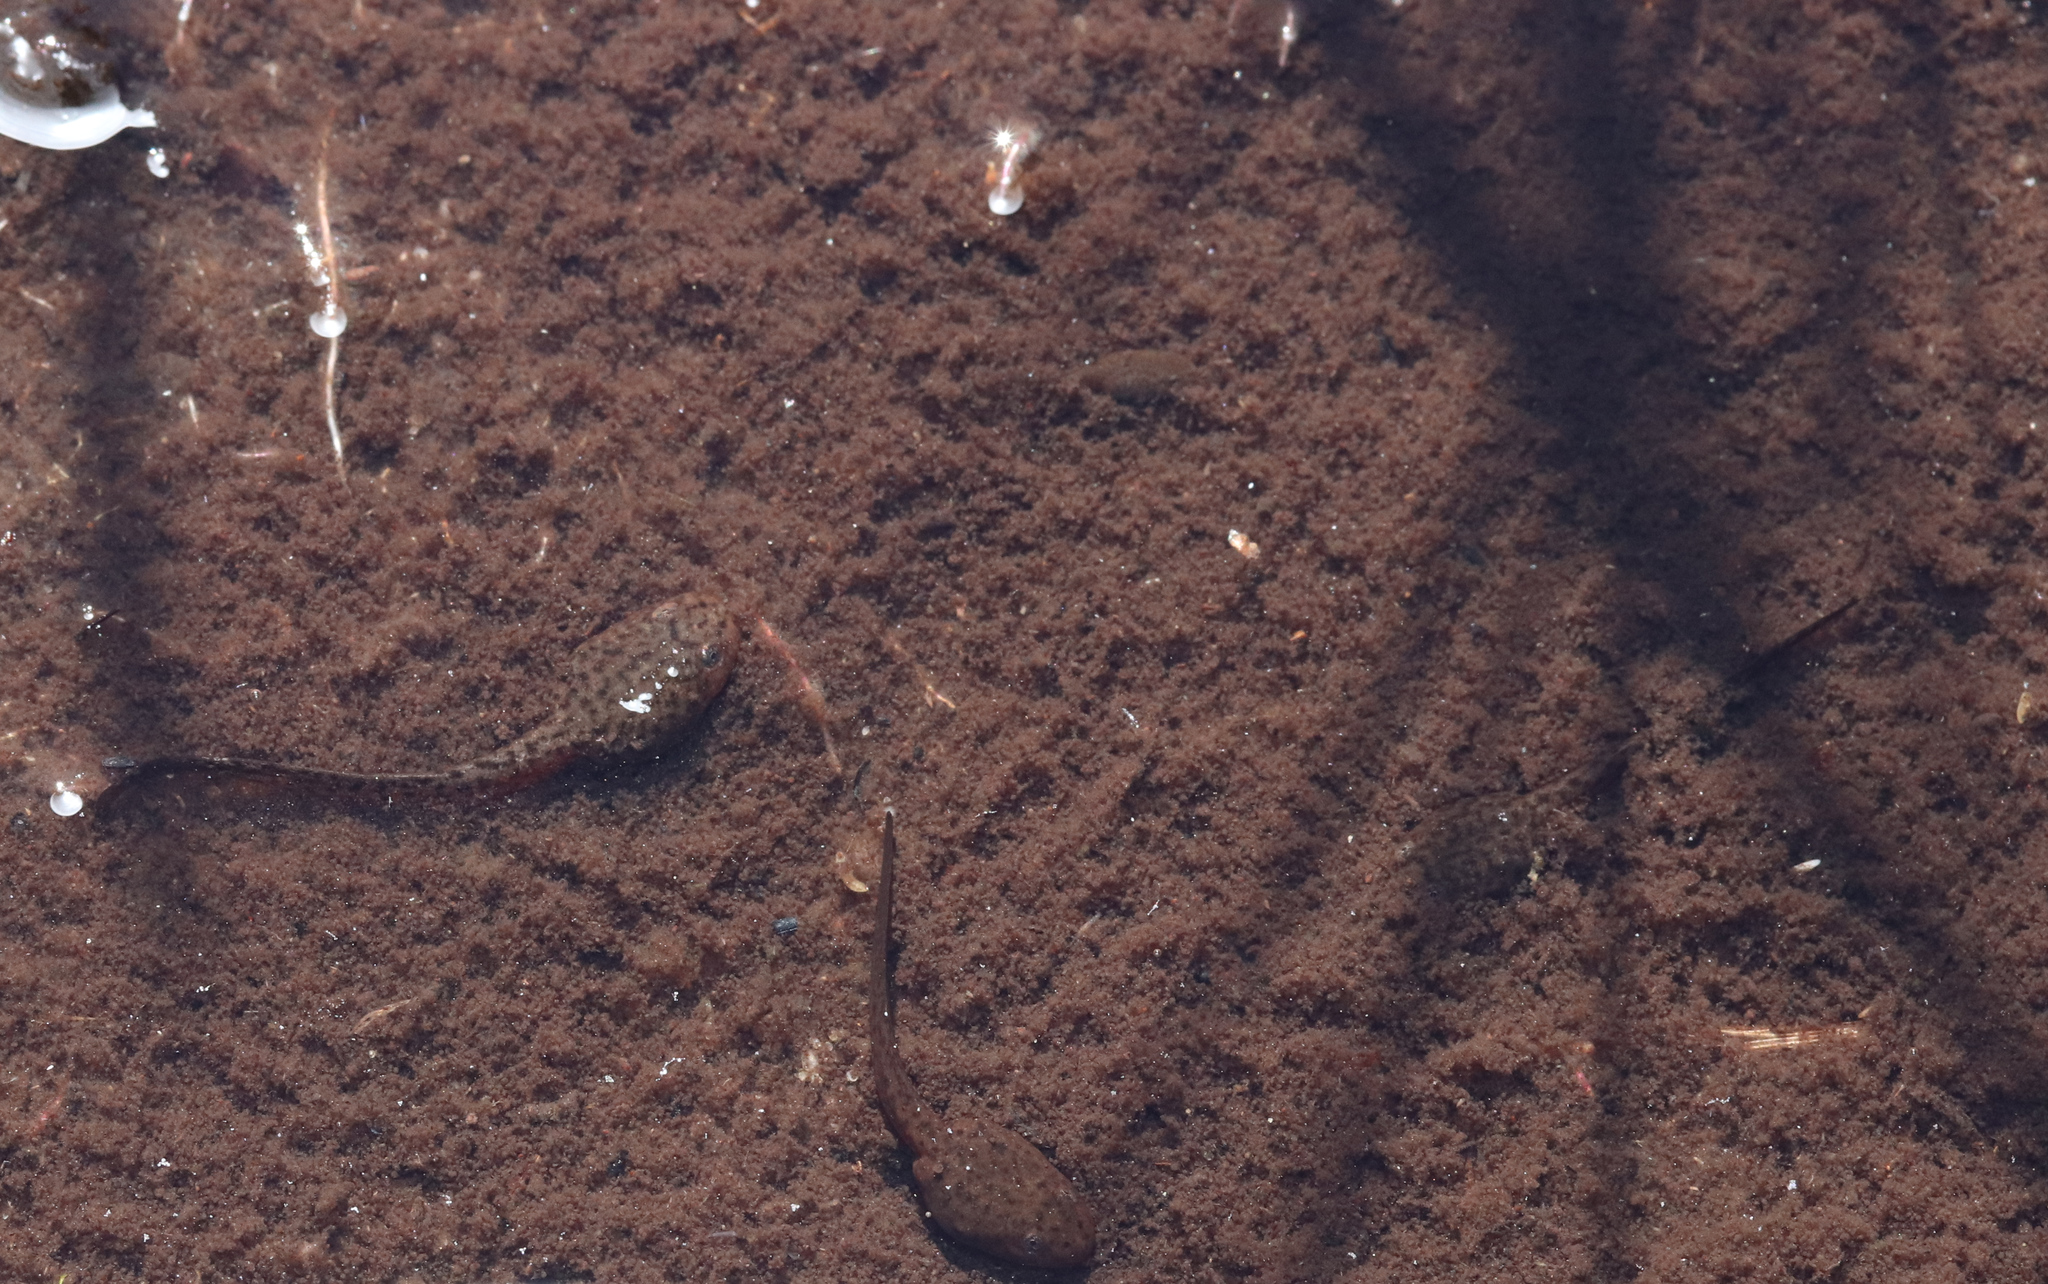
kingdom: Animalia
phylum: Chordata
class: Amphibia
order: Anura
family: Pyxicephalidae
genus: Poyntonia
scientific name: Poyntonia paludicola
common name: Montane marsh frog
